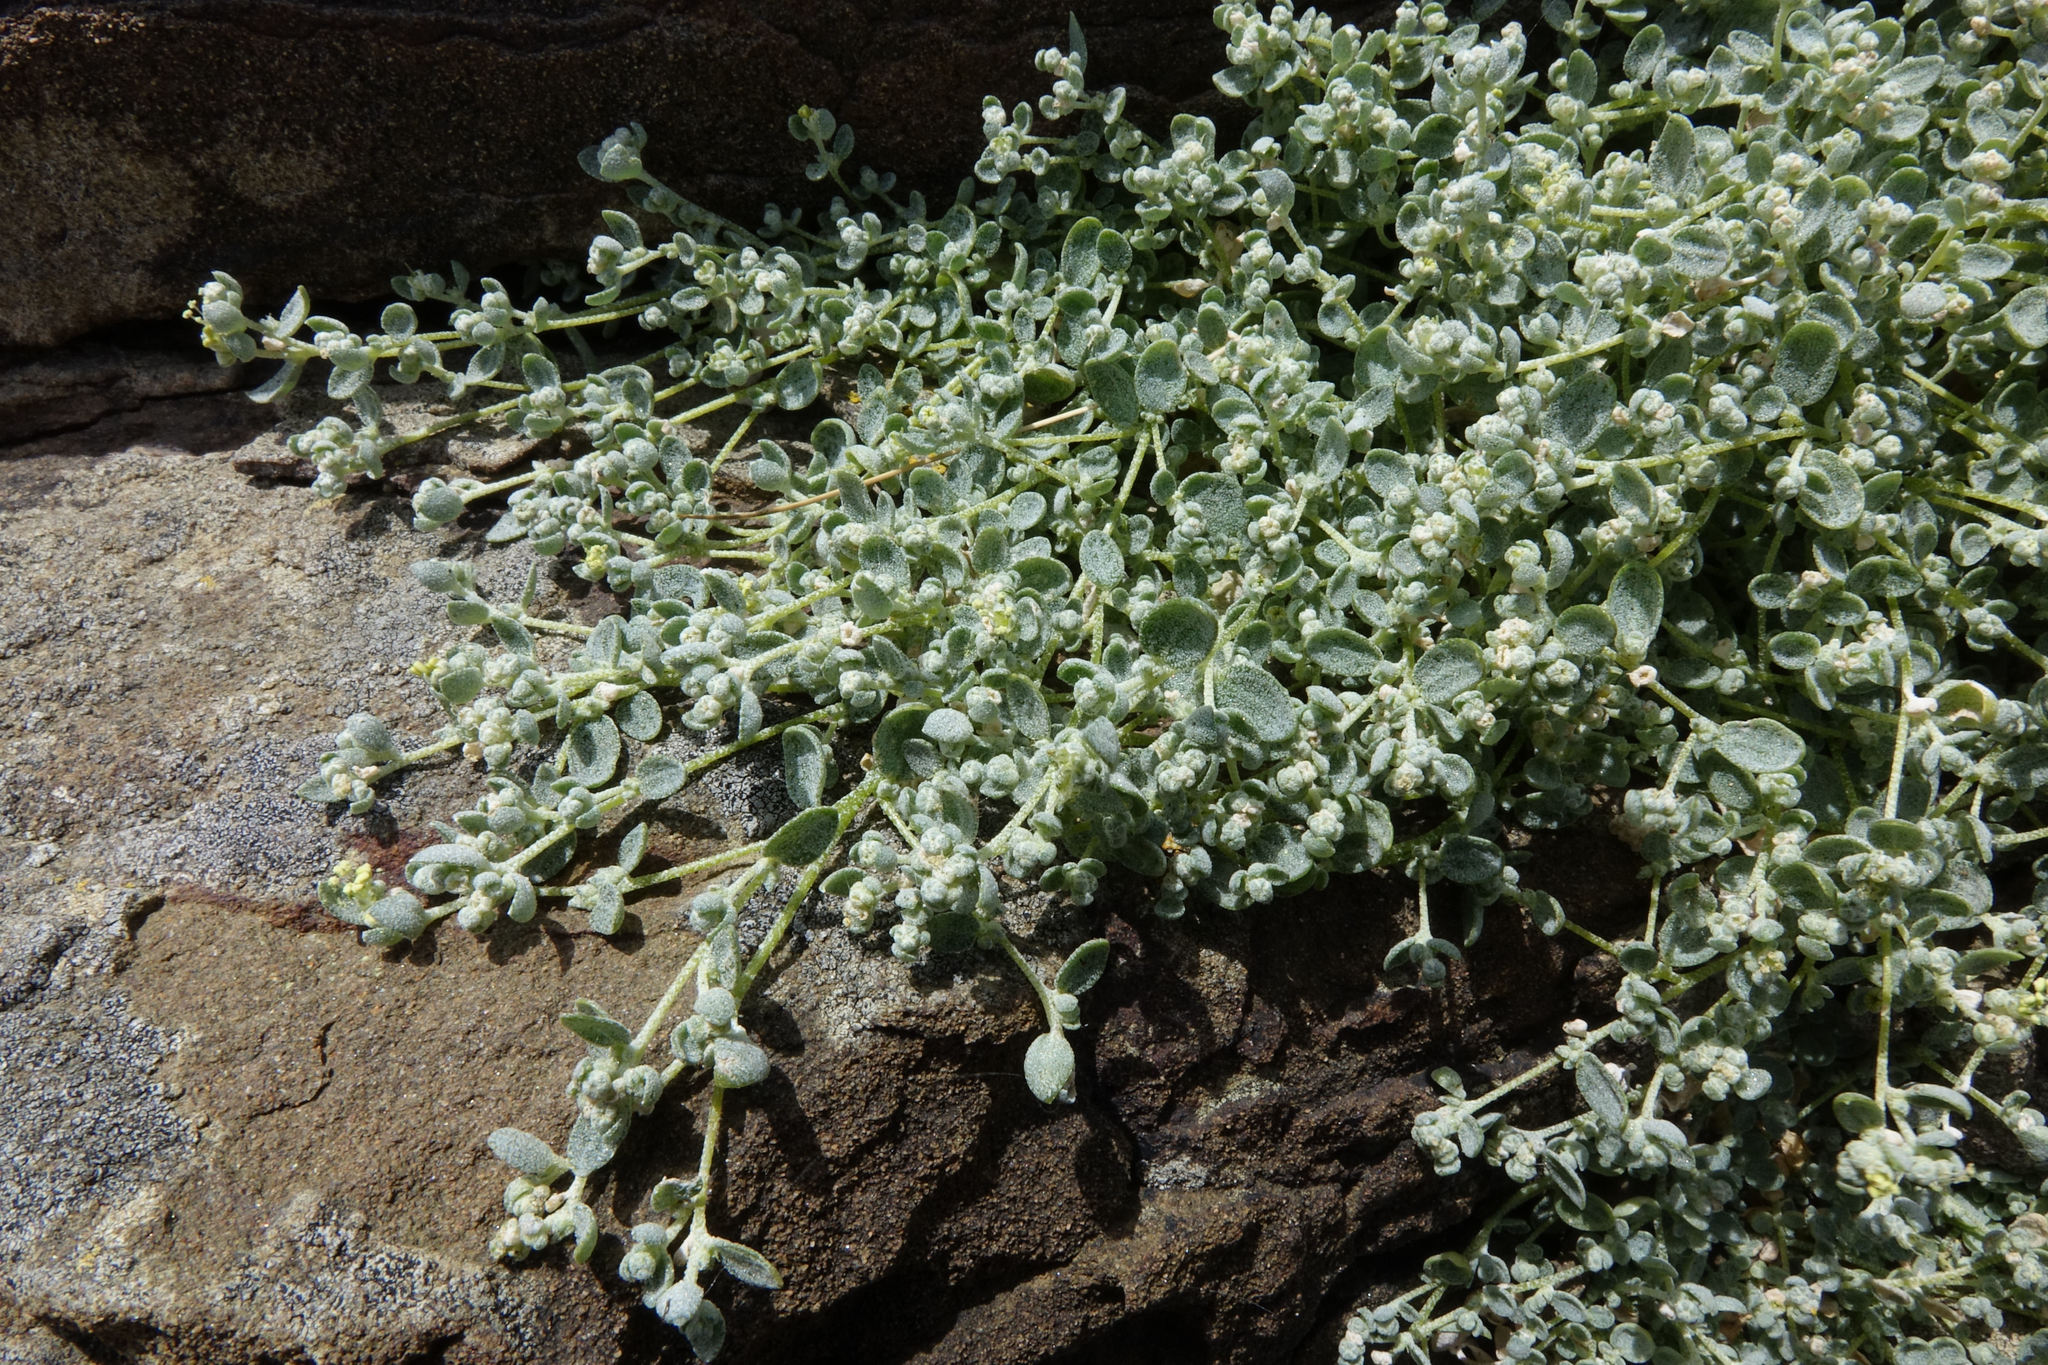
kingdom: Plantae
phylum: Tracheophyta
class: Magnoliopsida
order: Caryophyllales
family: Amaranthaceae
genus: Atriplex
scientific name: Atriplex buchananii
